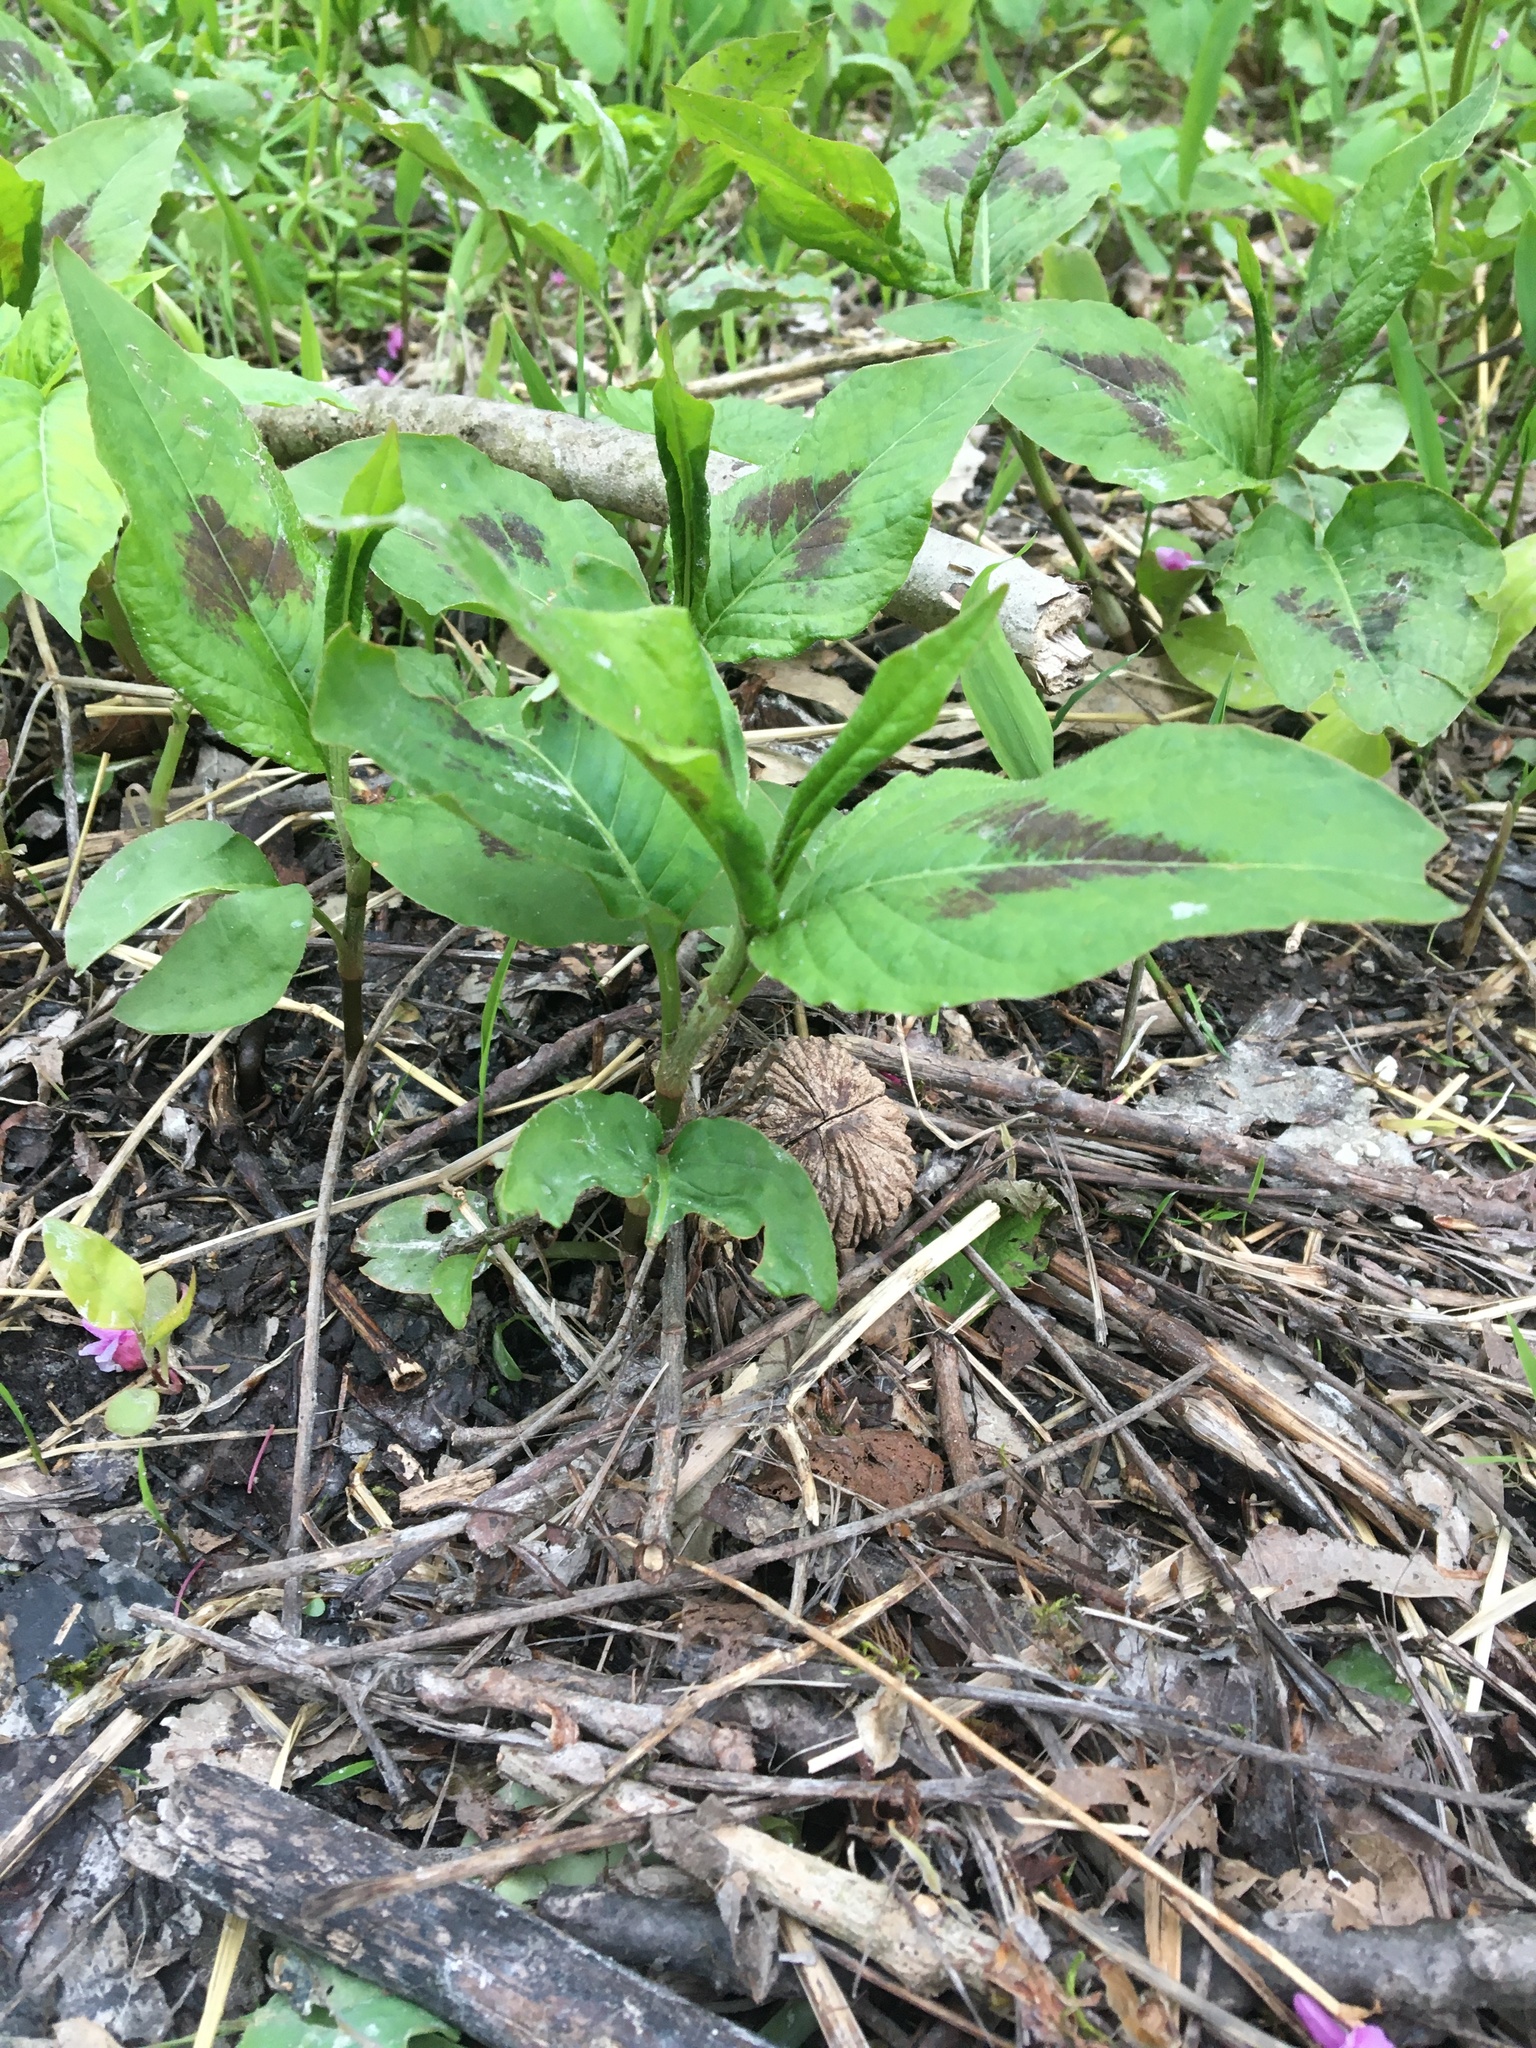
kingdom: Plantae
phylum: Tracheophyta
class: Magnoliopsida
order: Caryophyllales
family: Polygonaceae
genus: Persicaria
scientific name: Persicaria virginiana
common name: Jumpseed
